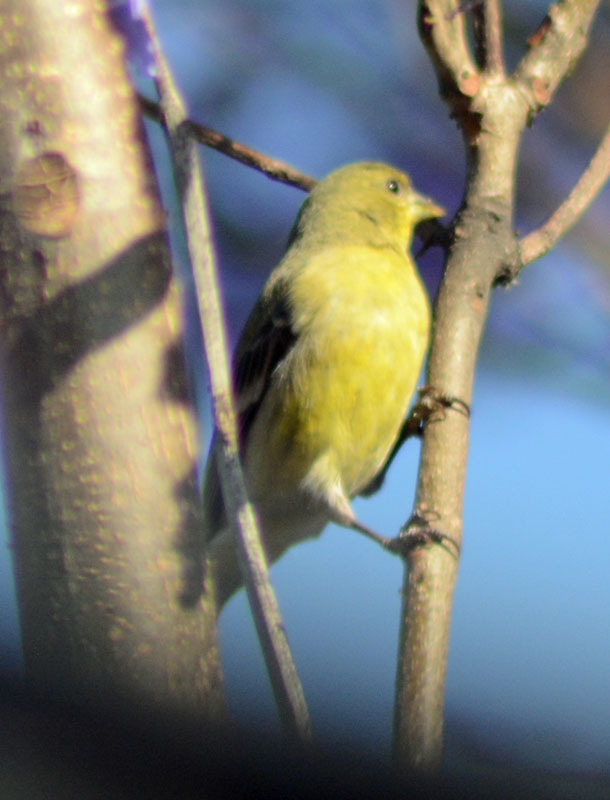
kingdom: Animalia
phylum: Chordata
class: Aves
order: Passeriformes
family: Fringillidae
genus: Spinus
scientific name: Spinus psaltria
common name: Lesser goldfinch
